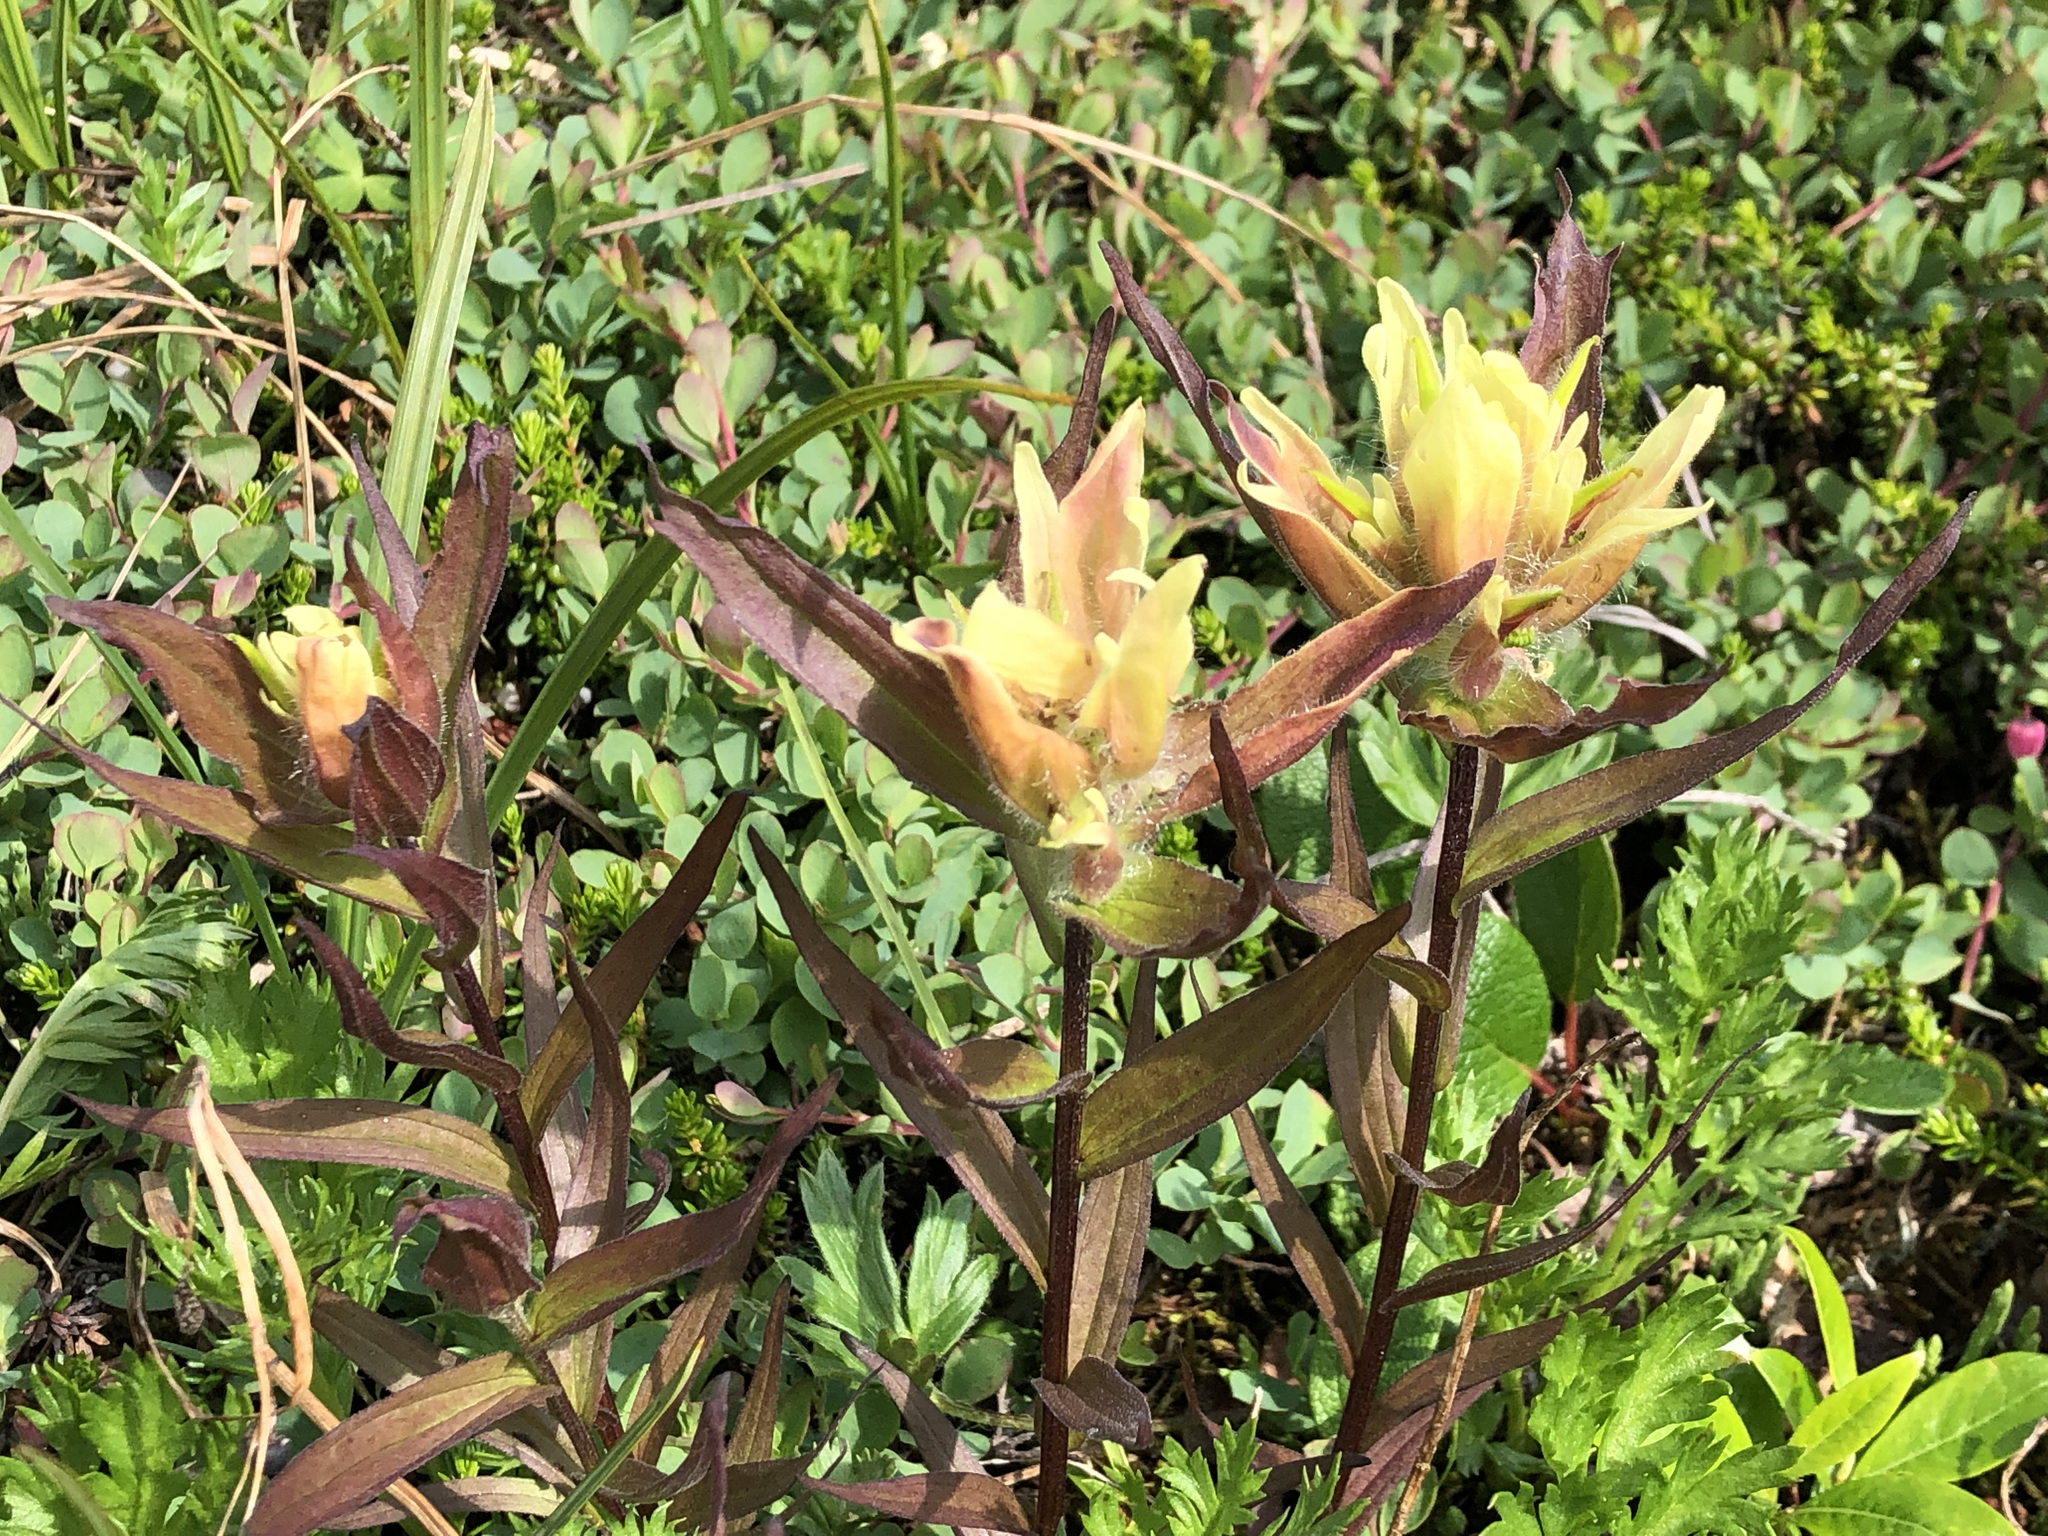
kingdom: Plantae
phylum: Tracheophyta
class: Magnoliopsida
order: Lamiales
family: Orobanchaceae
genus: Castilleja
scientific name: Castilleja unalaschcensis
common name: Unalaska paintbrush
